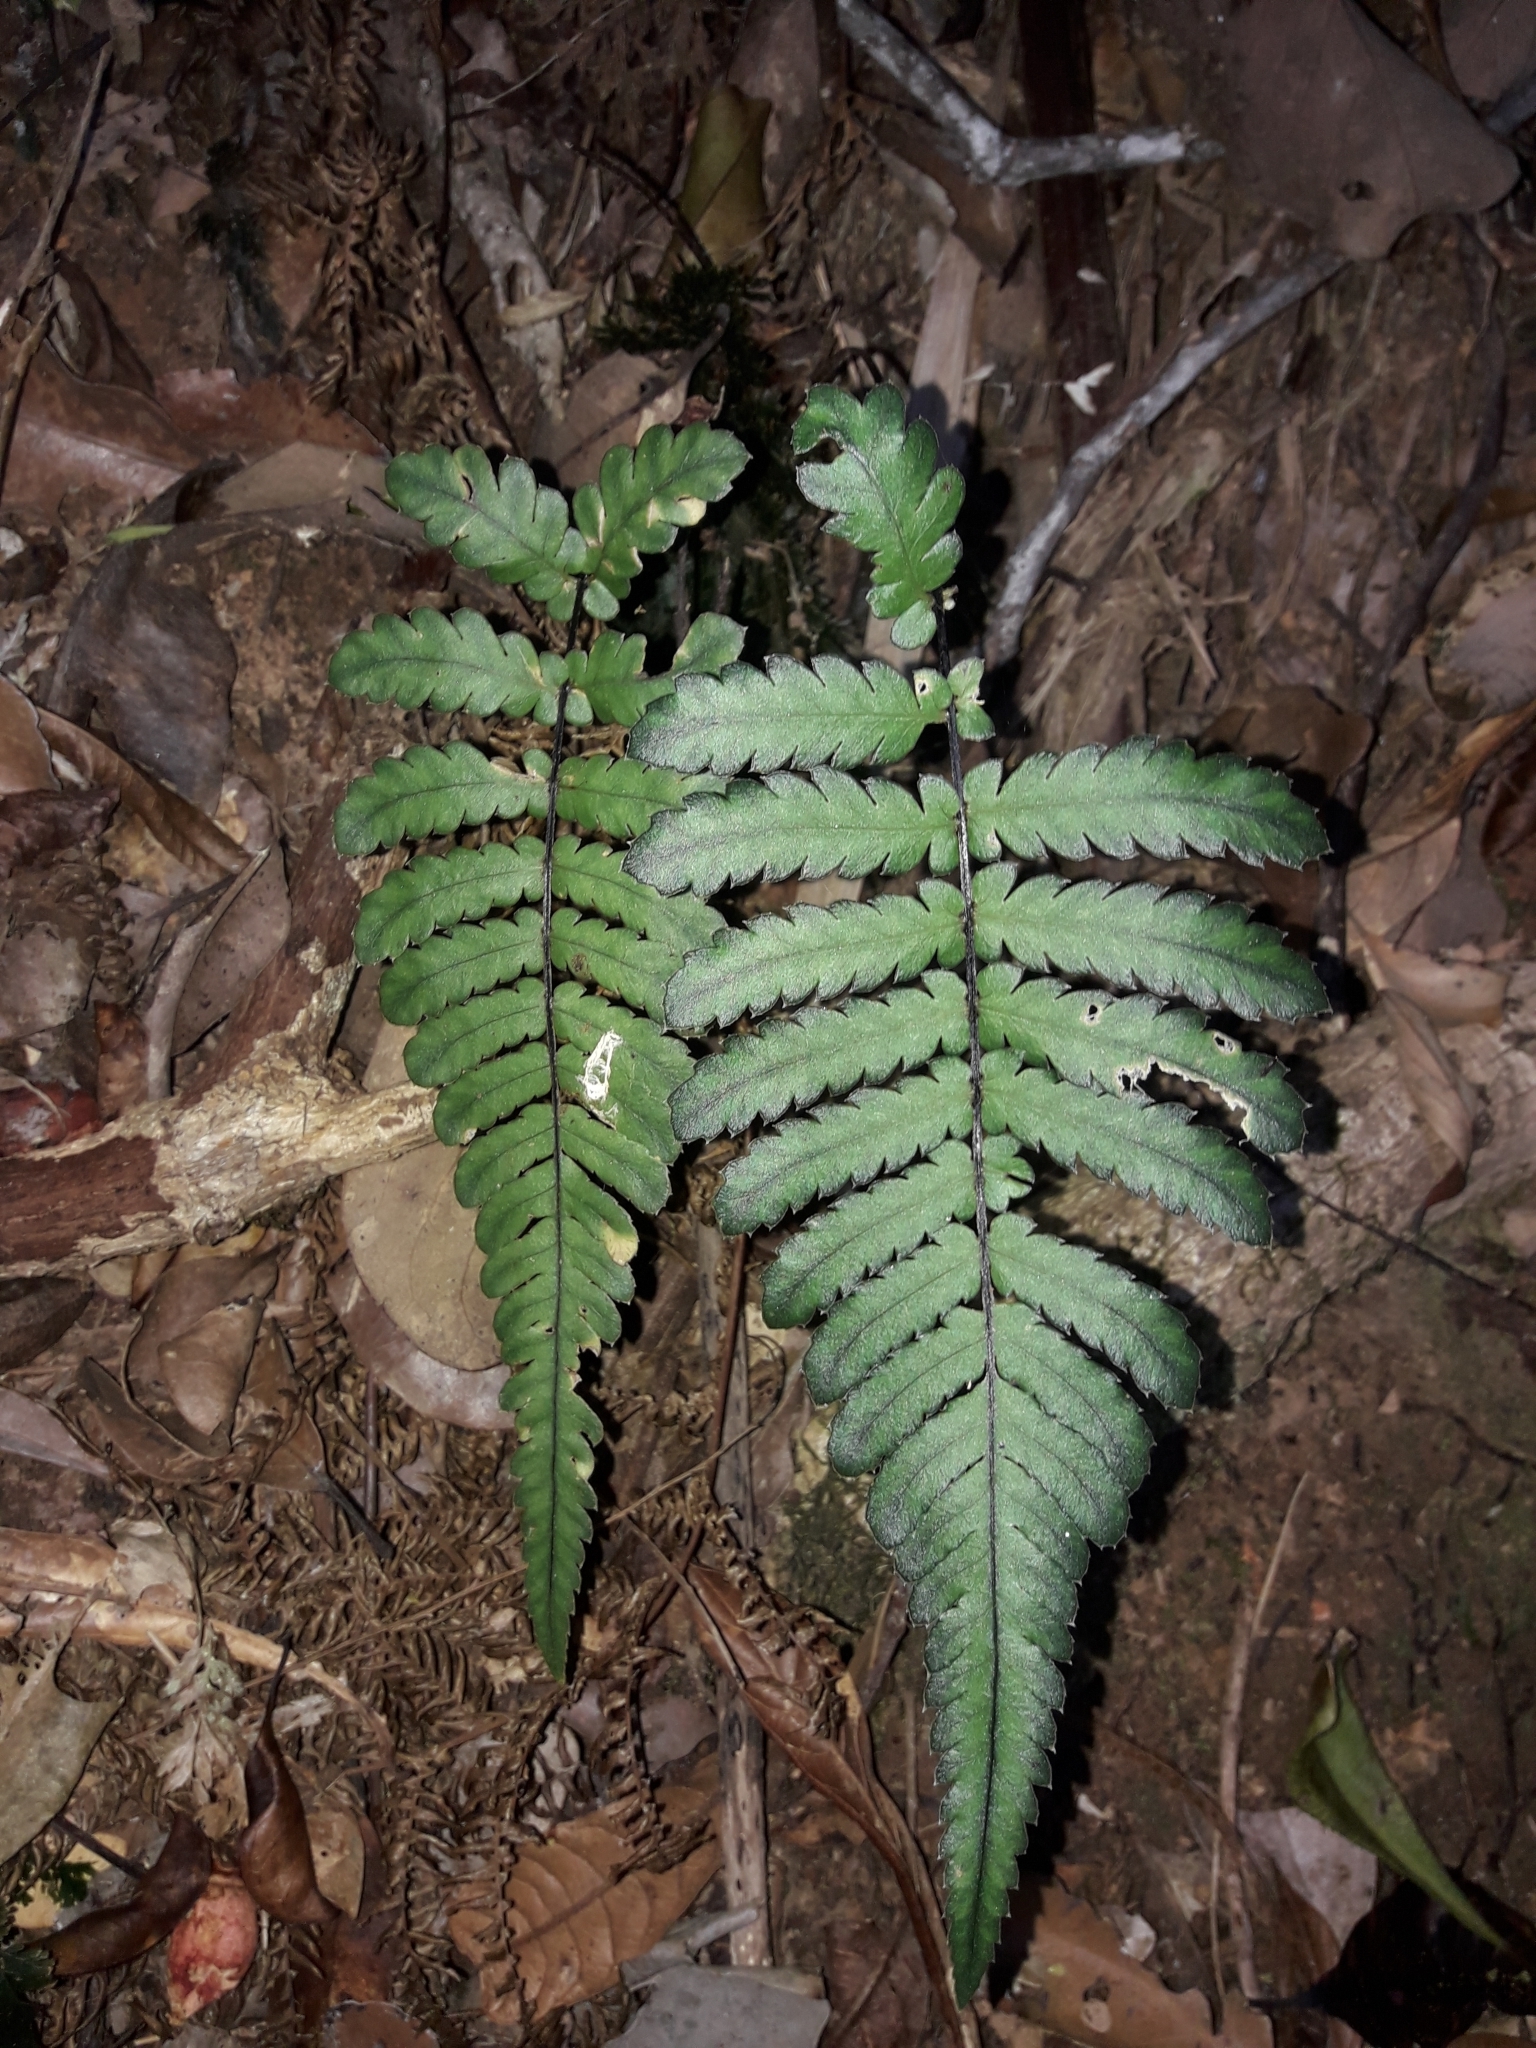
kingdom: Plantae
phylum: Tracheophyta
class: Polypodiopsida
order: Polypodiales
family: Blechnaceae
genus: Diploblechnum
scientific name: Diploblechnum diversifolium
